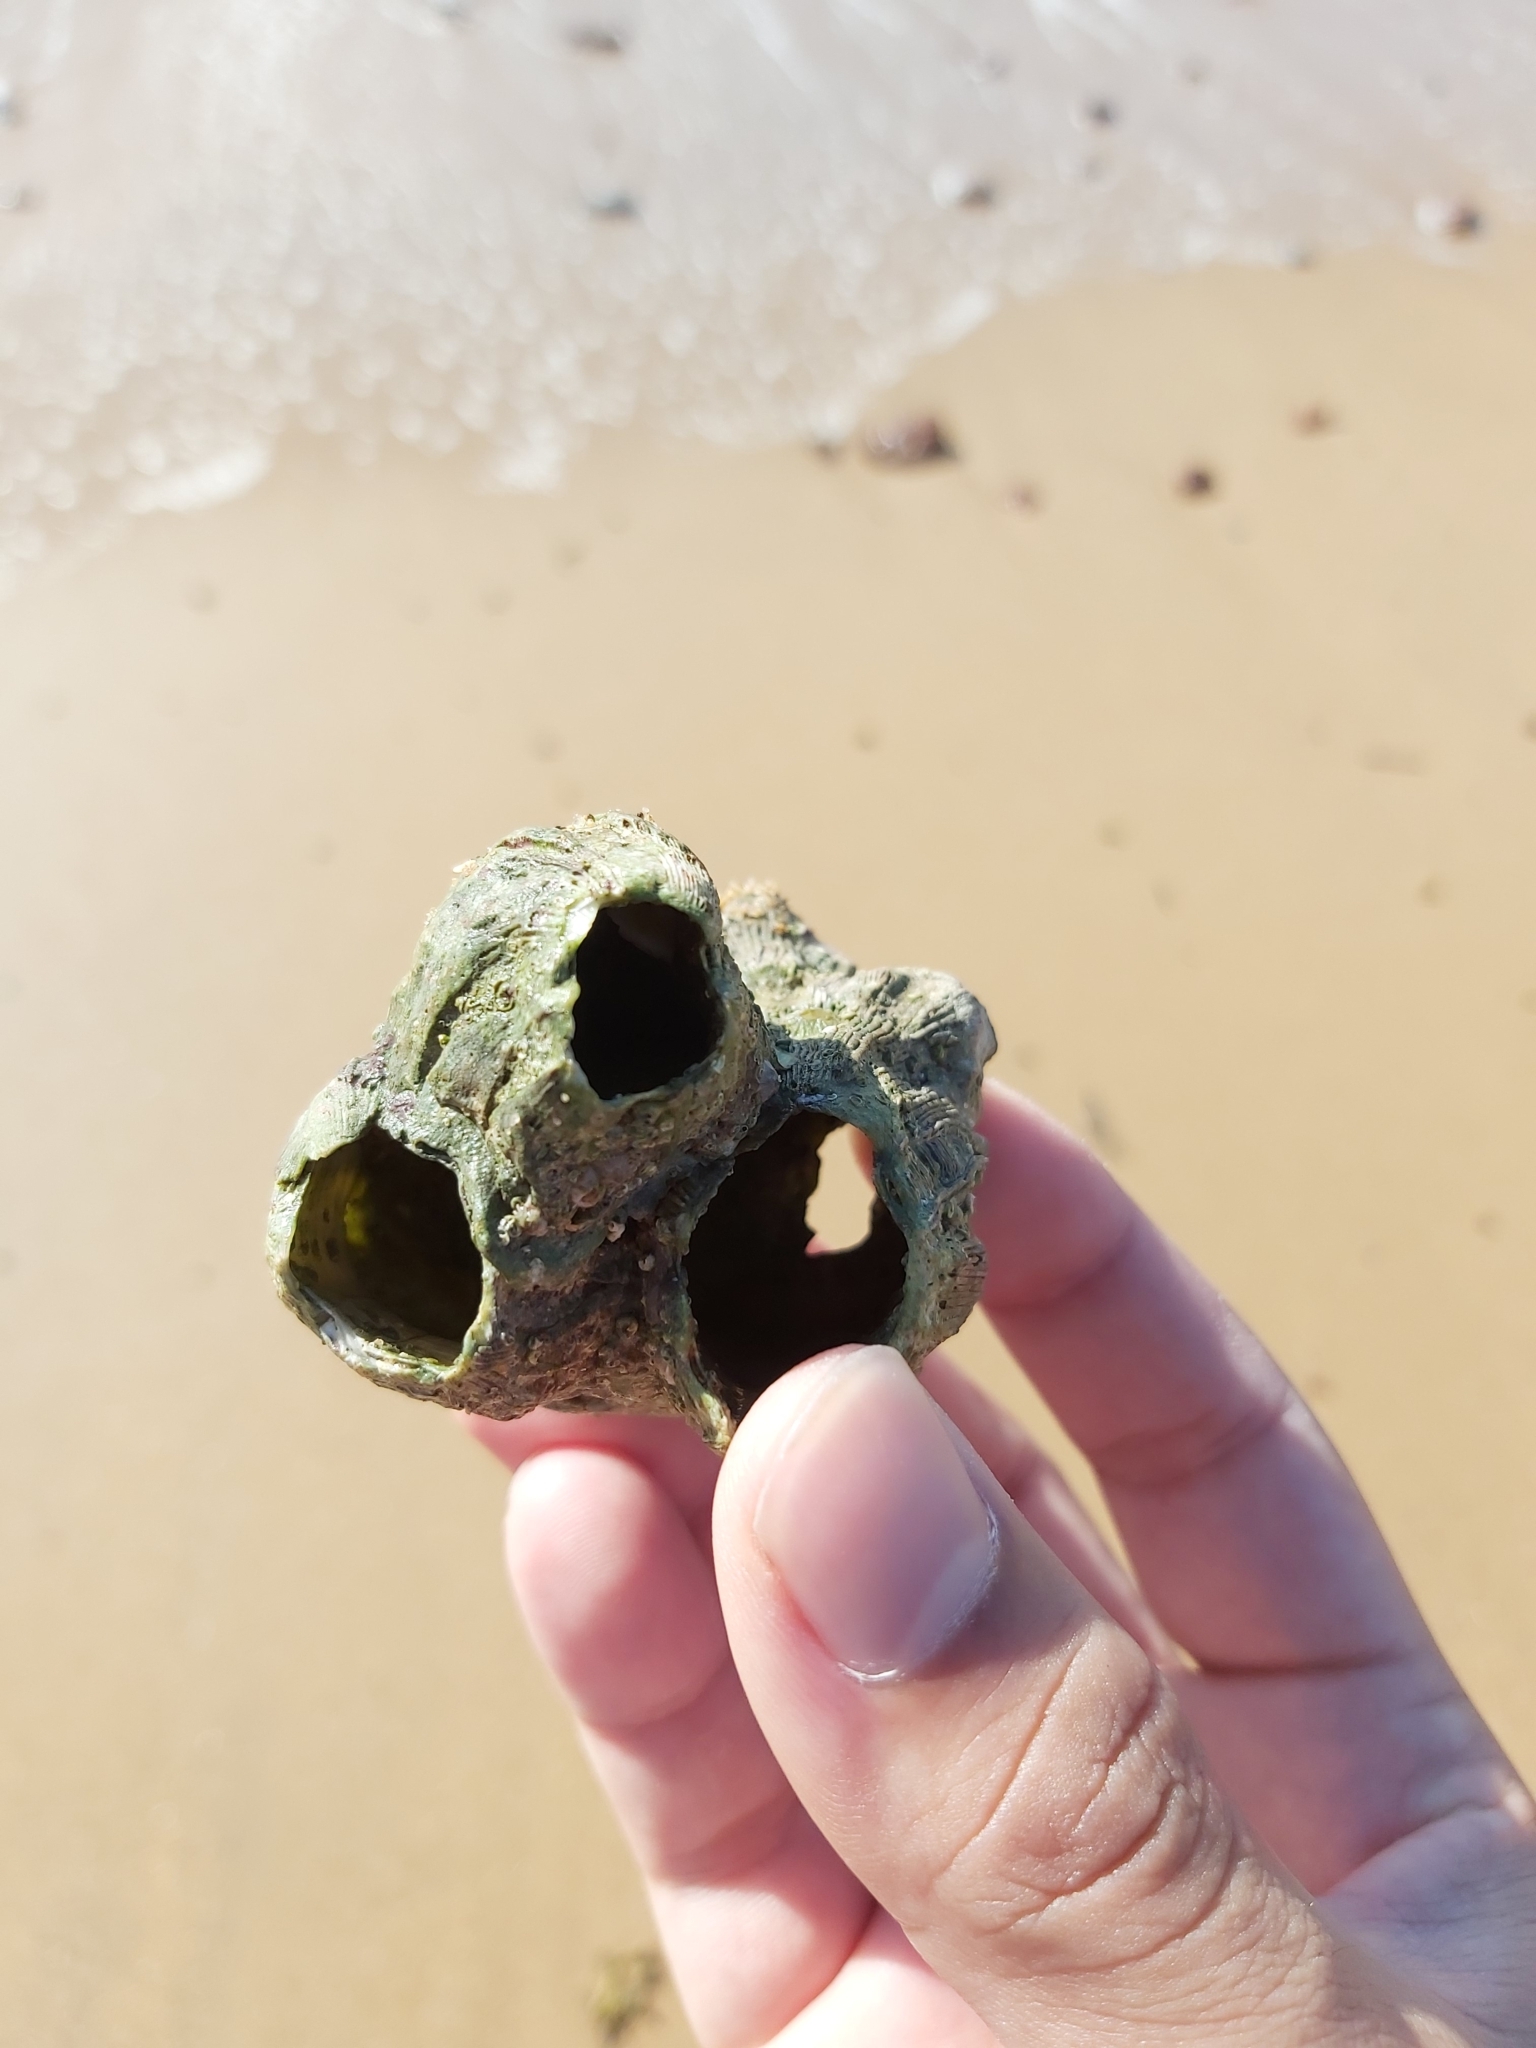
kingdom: Animalia
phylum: Arthropoda
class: Maxillopoda
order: Sessilia
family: Balanidae
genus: Austromegabalanus
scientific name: Austromegabalanus nigrescens
